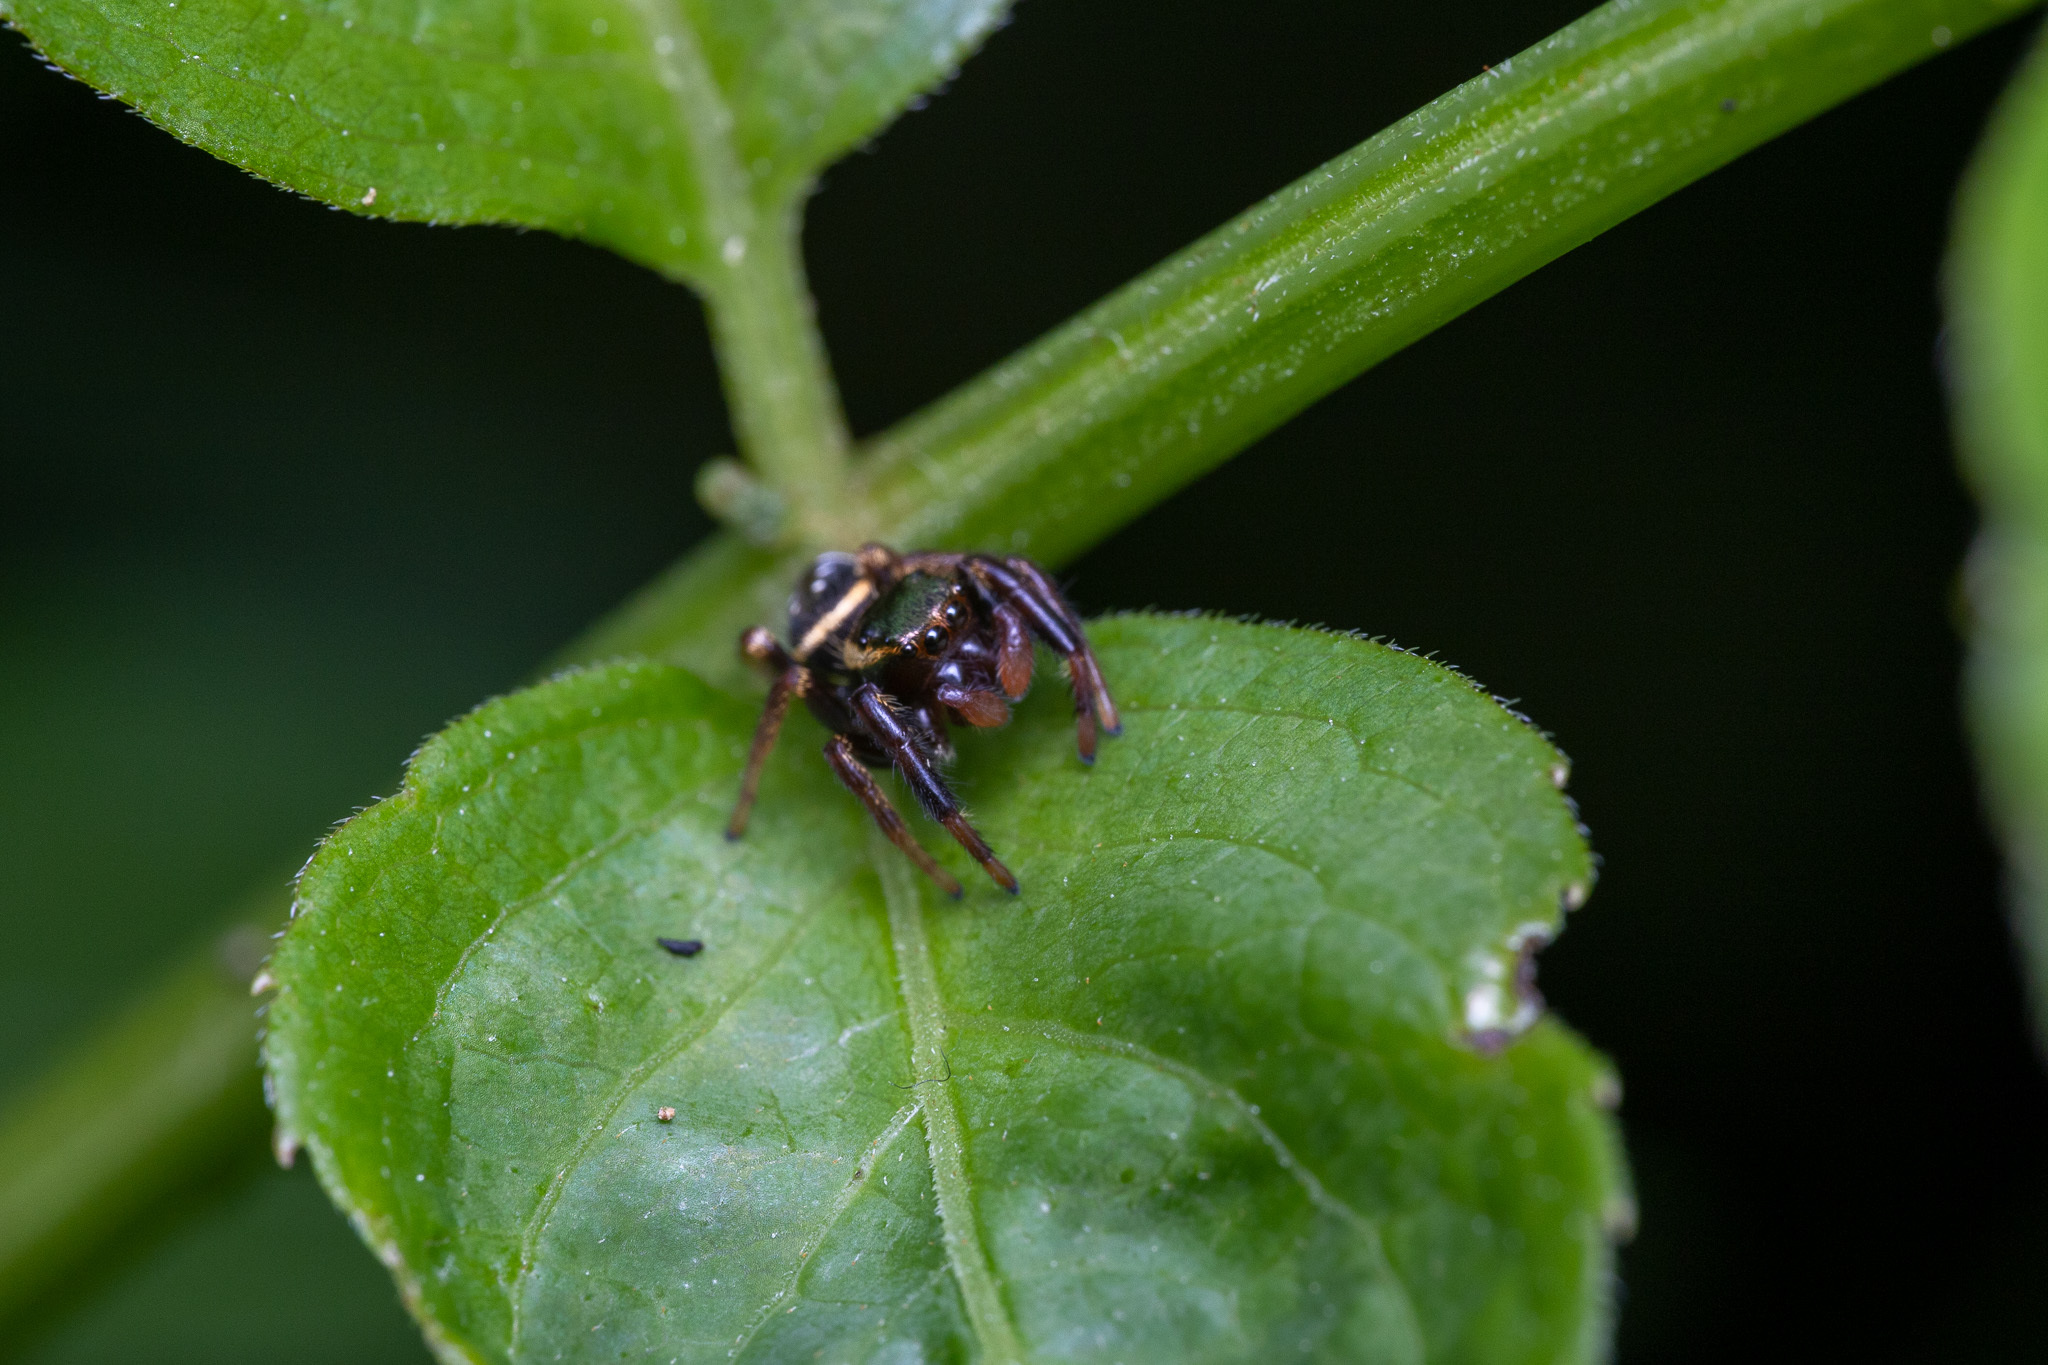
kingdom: Animalia
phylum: Arthropoda
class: Arachnida
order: Araneae
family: Salticidae
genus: Paraphidippus
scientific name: Paraphidippus aurantius
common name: Jumping spiders
